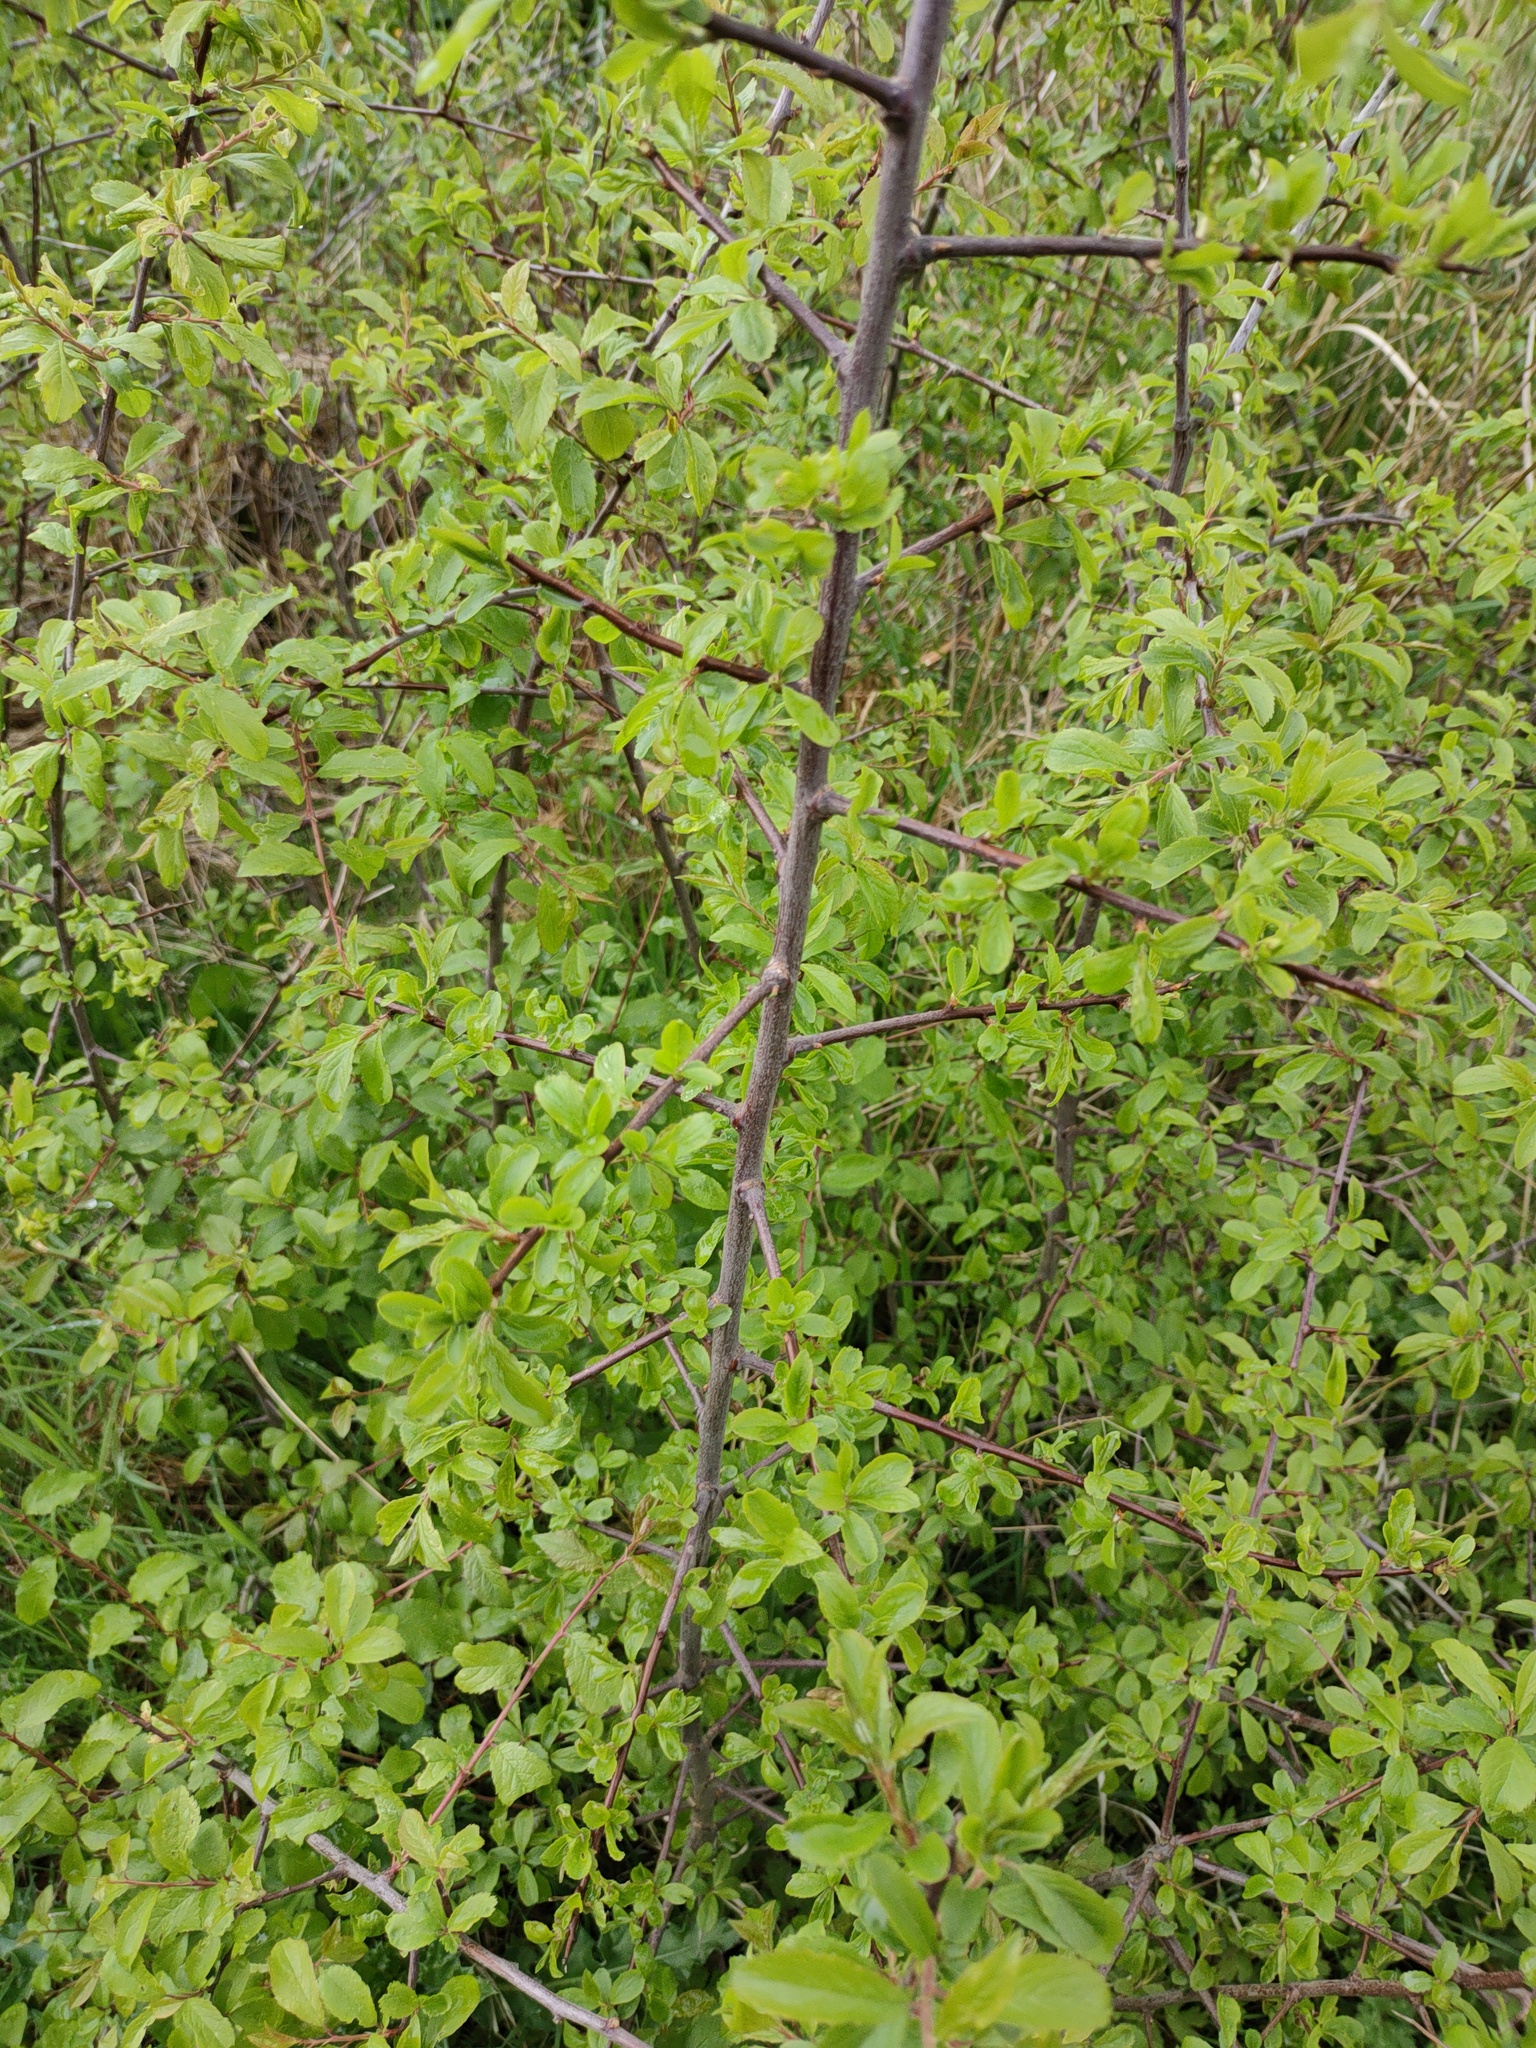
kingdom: Plantae
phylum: Tracheophyta
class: Magnoliopsida
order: Rosales
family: Rosaceae
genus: Prunus
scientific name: Prunus spinosa
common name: Blackthorn
